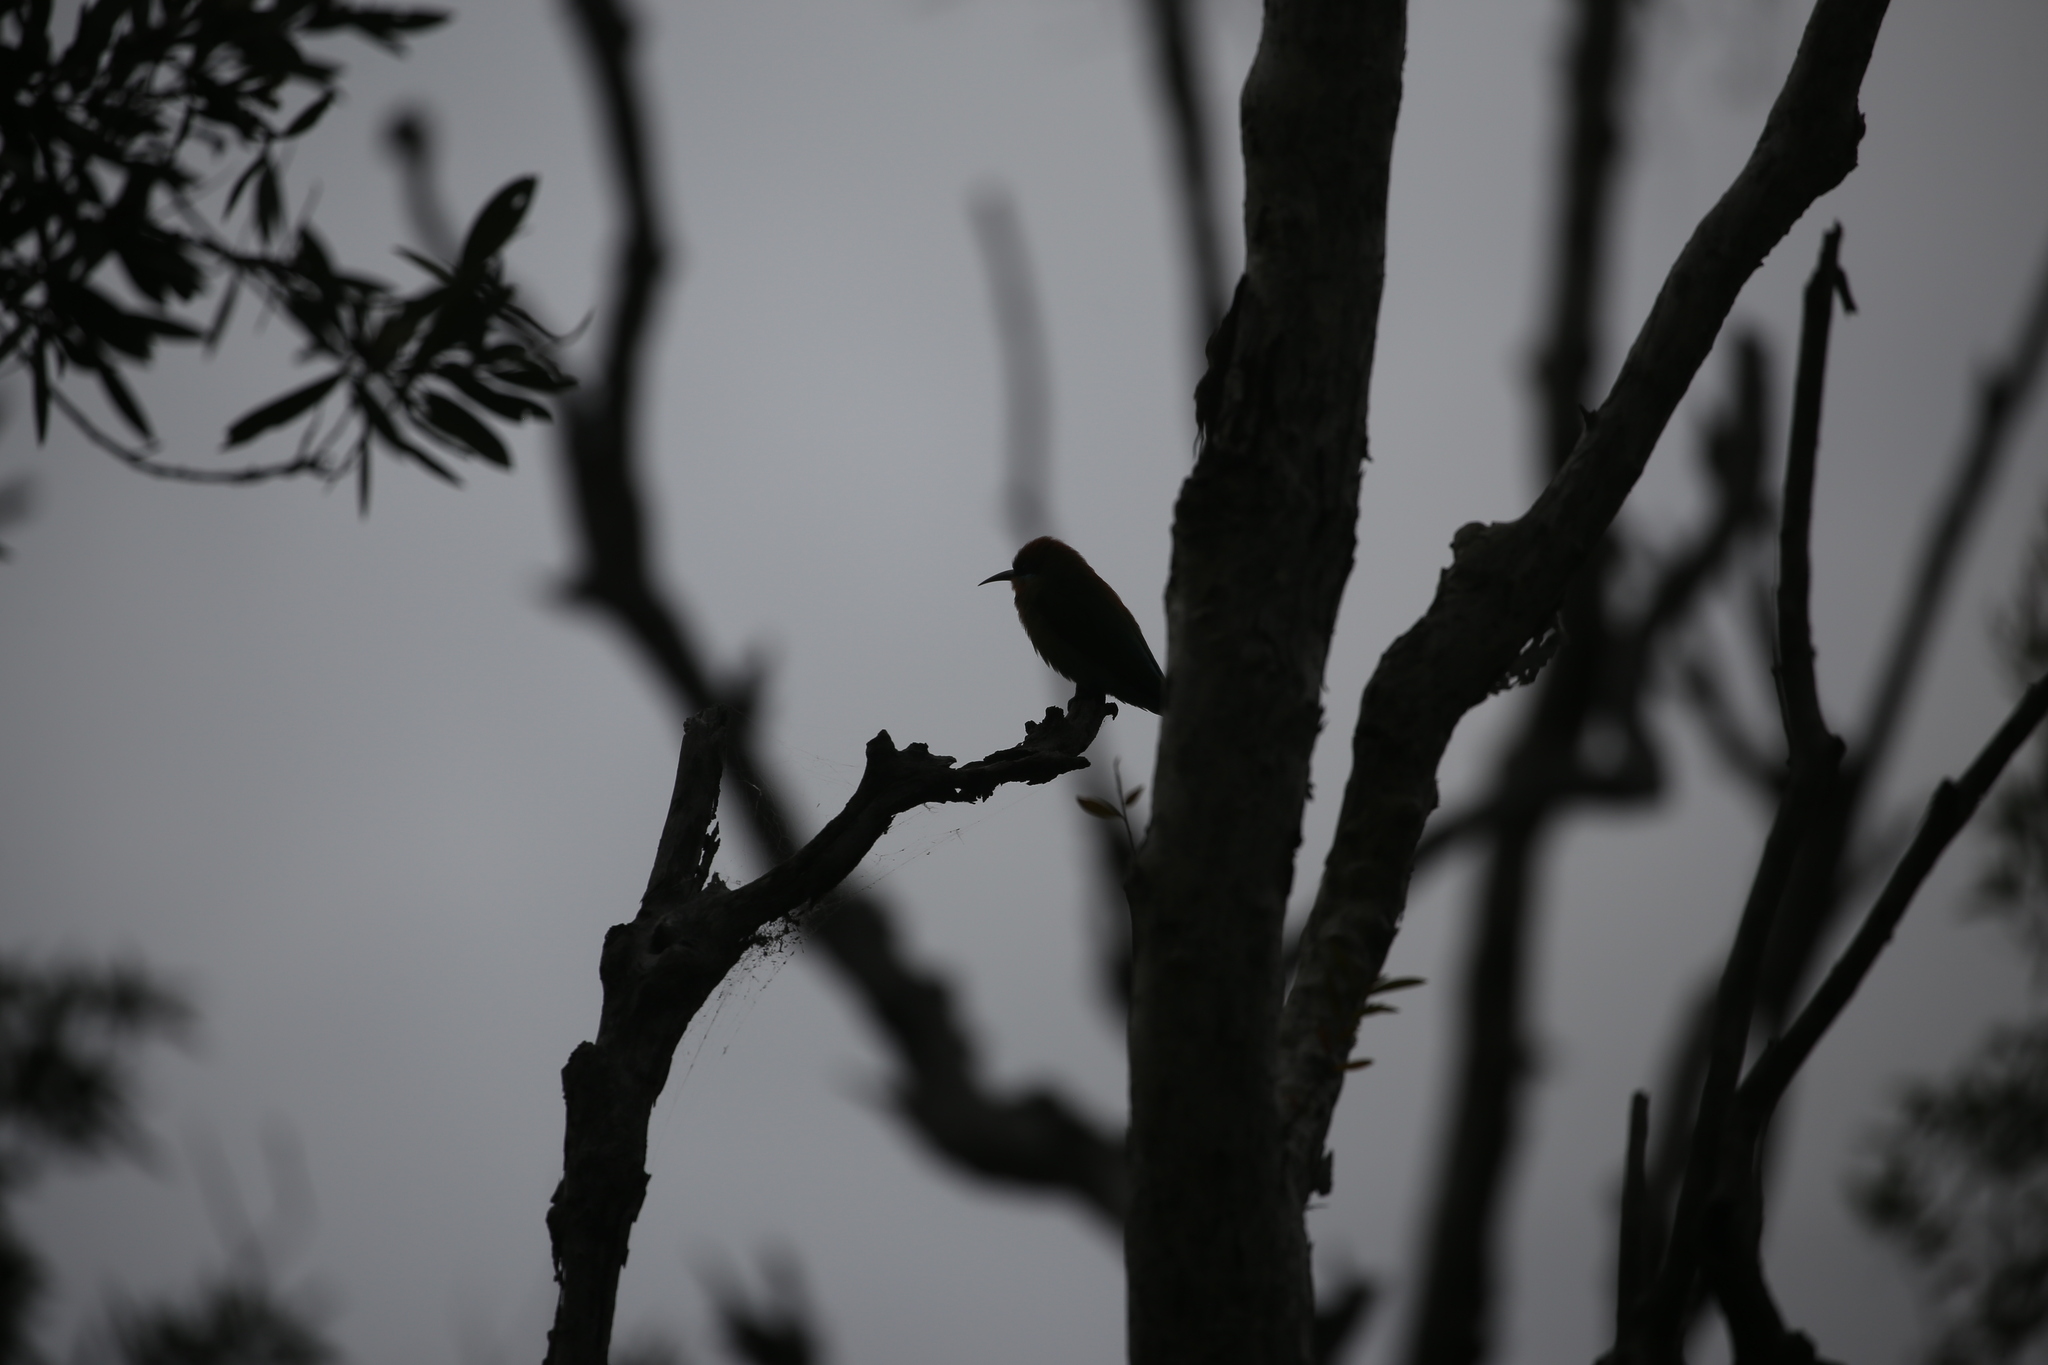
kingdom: Animalia
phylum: Chordata
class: Aves
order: Coraciiformes
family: Meropidae
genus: Merops
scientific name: Merops ornatus
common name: Rainbow bee-eater
